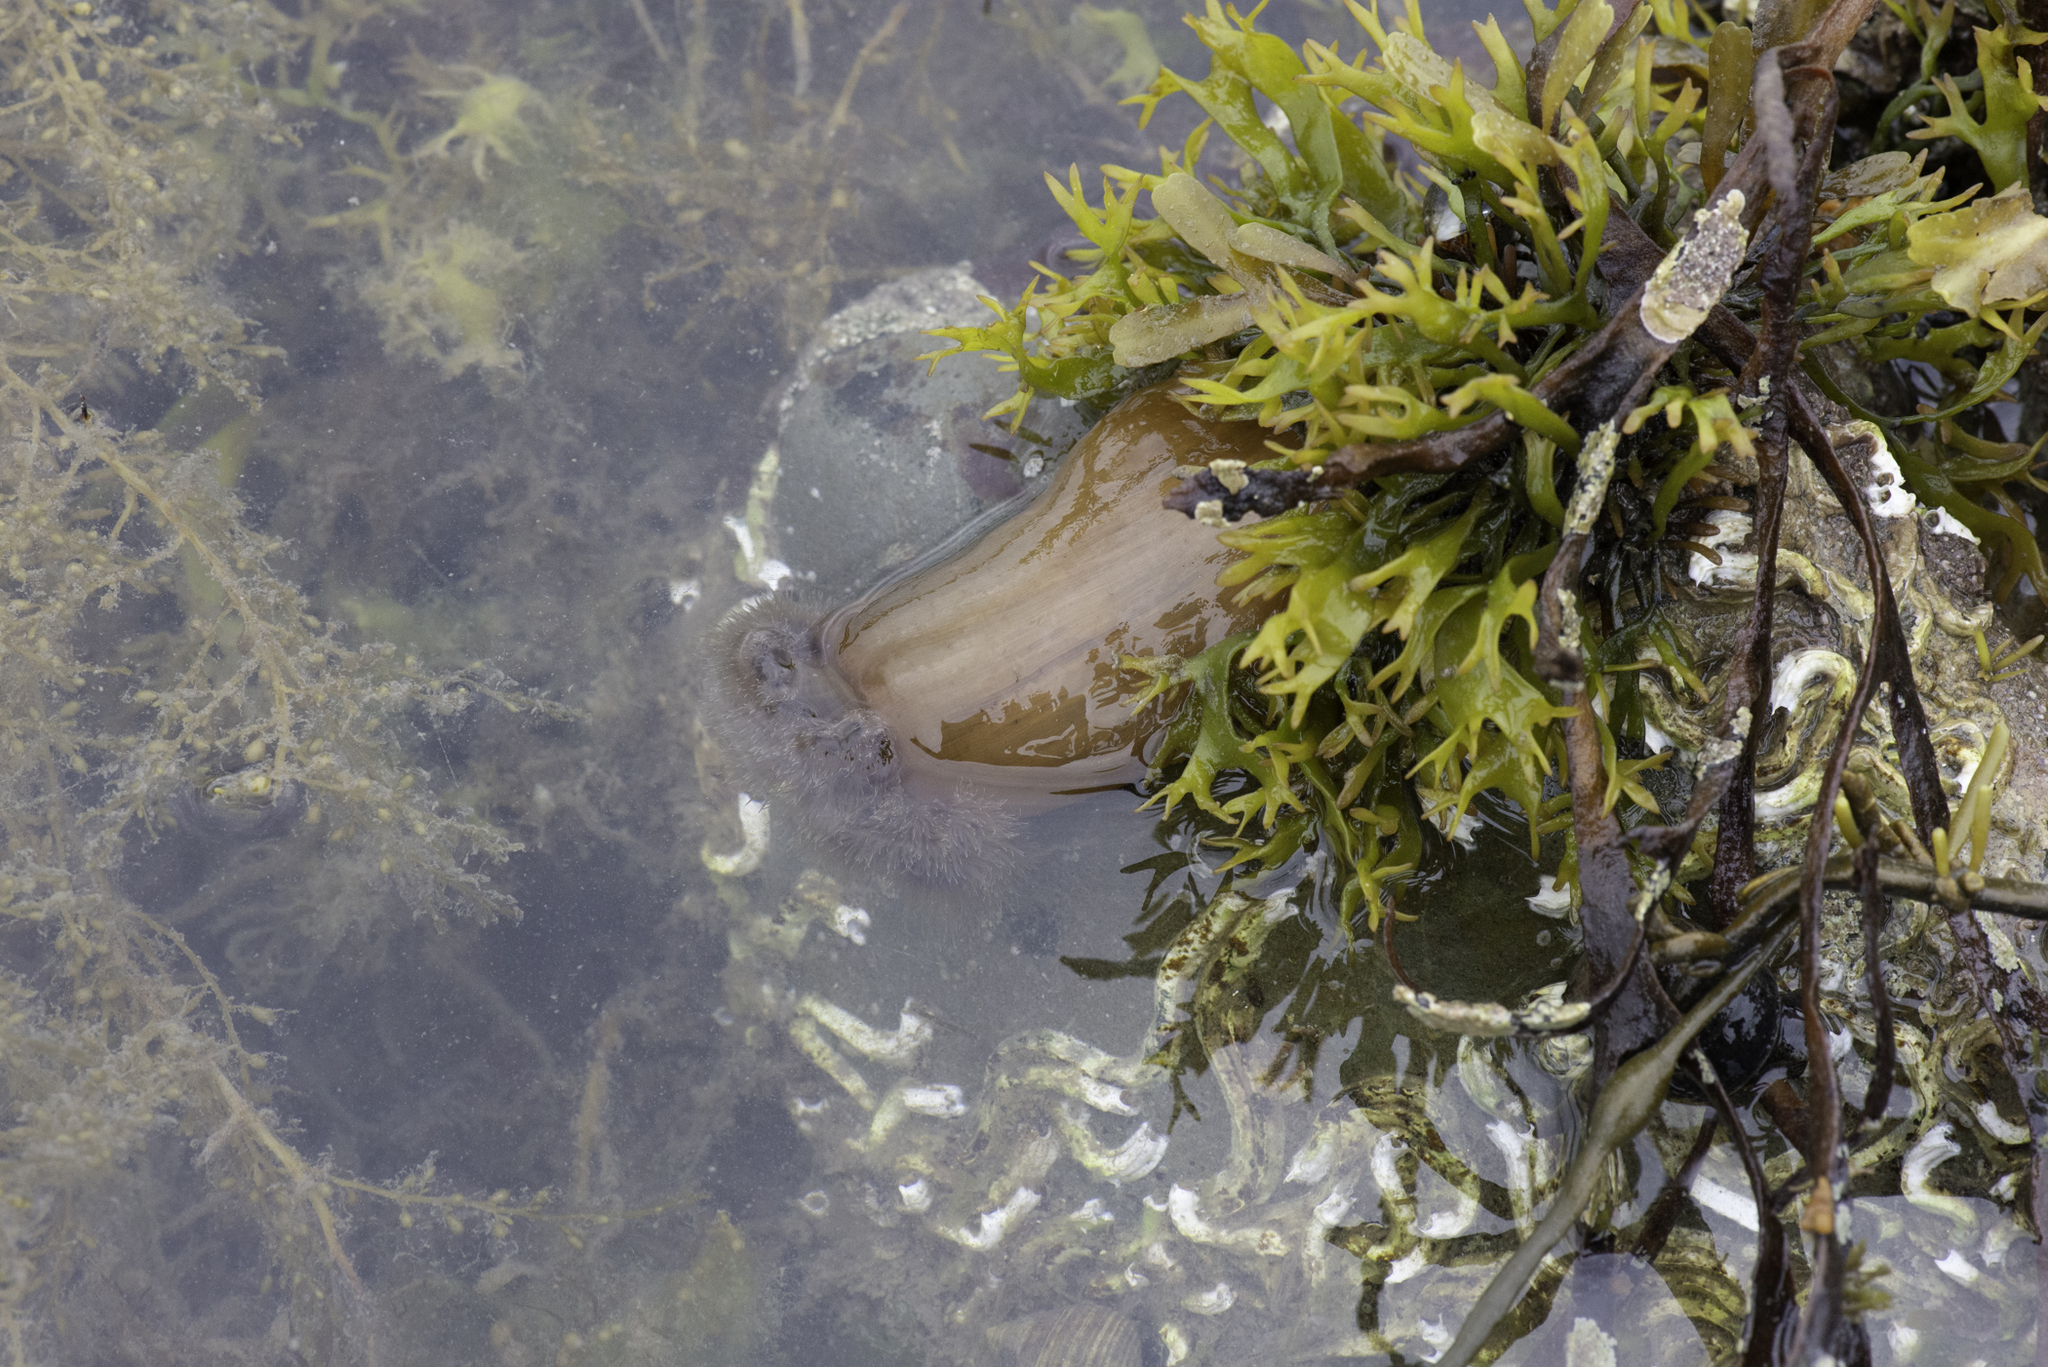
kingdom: Animalia
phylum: Cnidaria
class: Anthozoa
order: Actiniaria
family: Metridiidae
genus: Metridium
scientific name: Metridium senile
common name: Clonal plumose anemone
